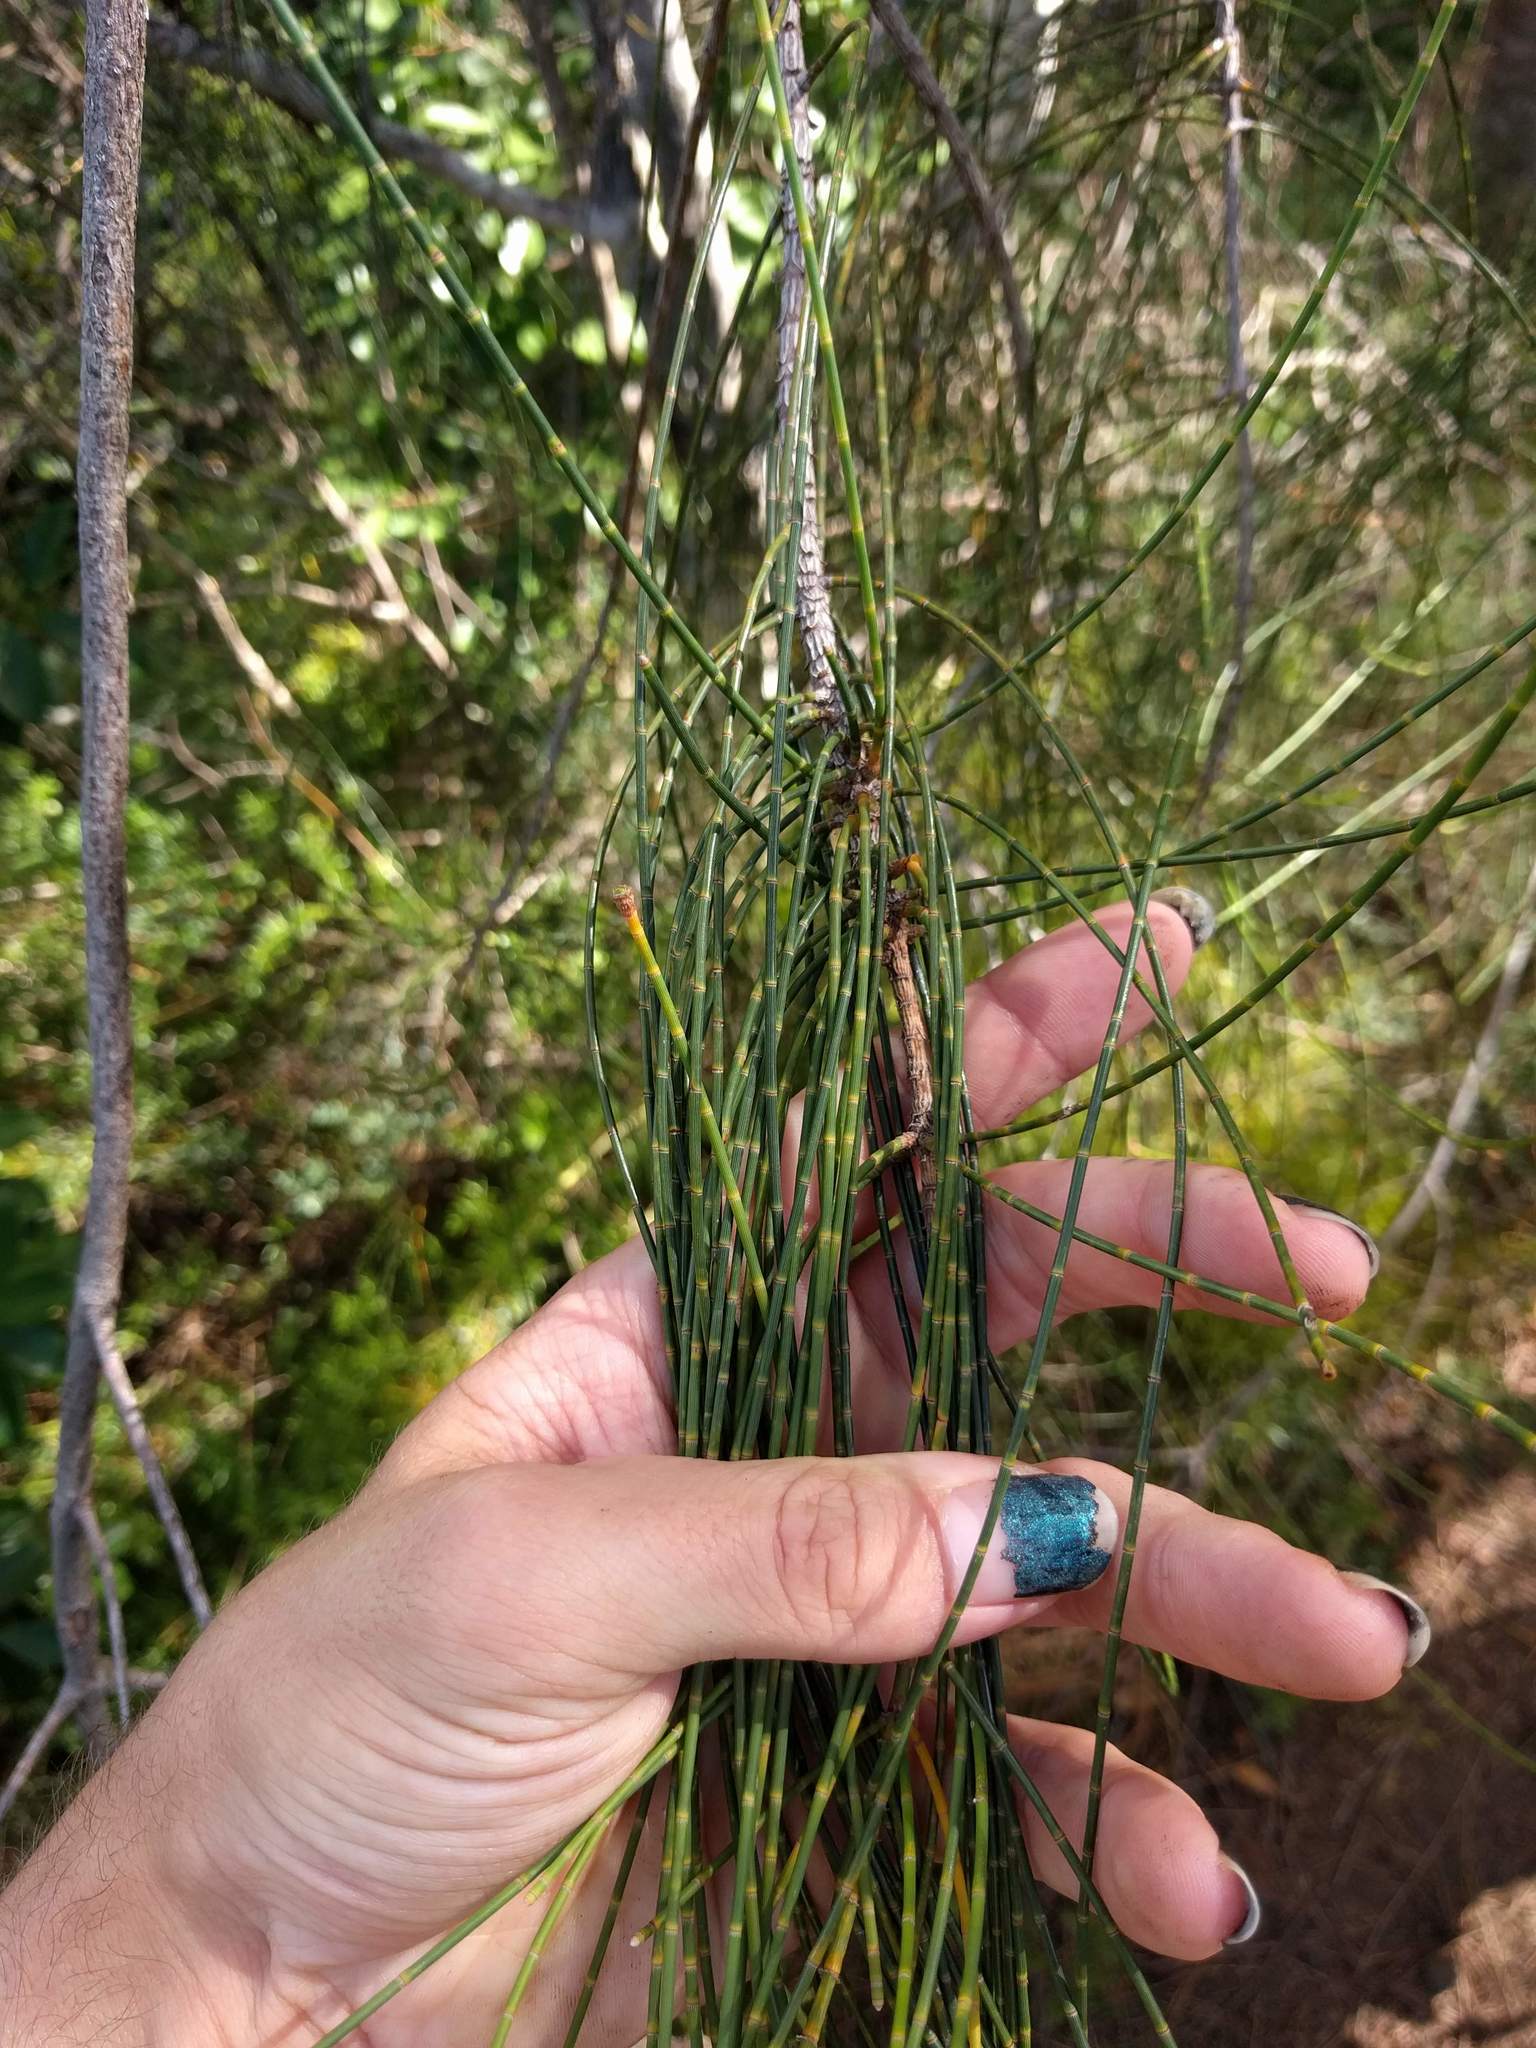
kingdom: Plantae
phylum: Tracheophyta
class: Magnoliopsida
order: Fagales
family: Casuarinaceae
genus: Casuarina
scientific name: Casuarina equisetifolia
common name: Beach sheoak
